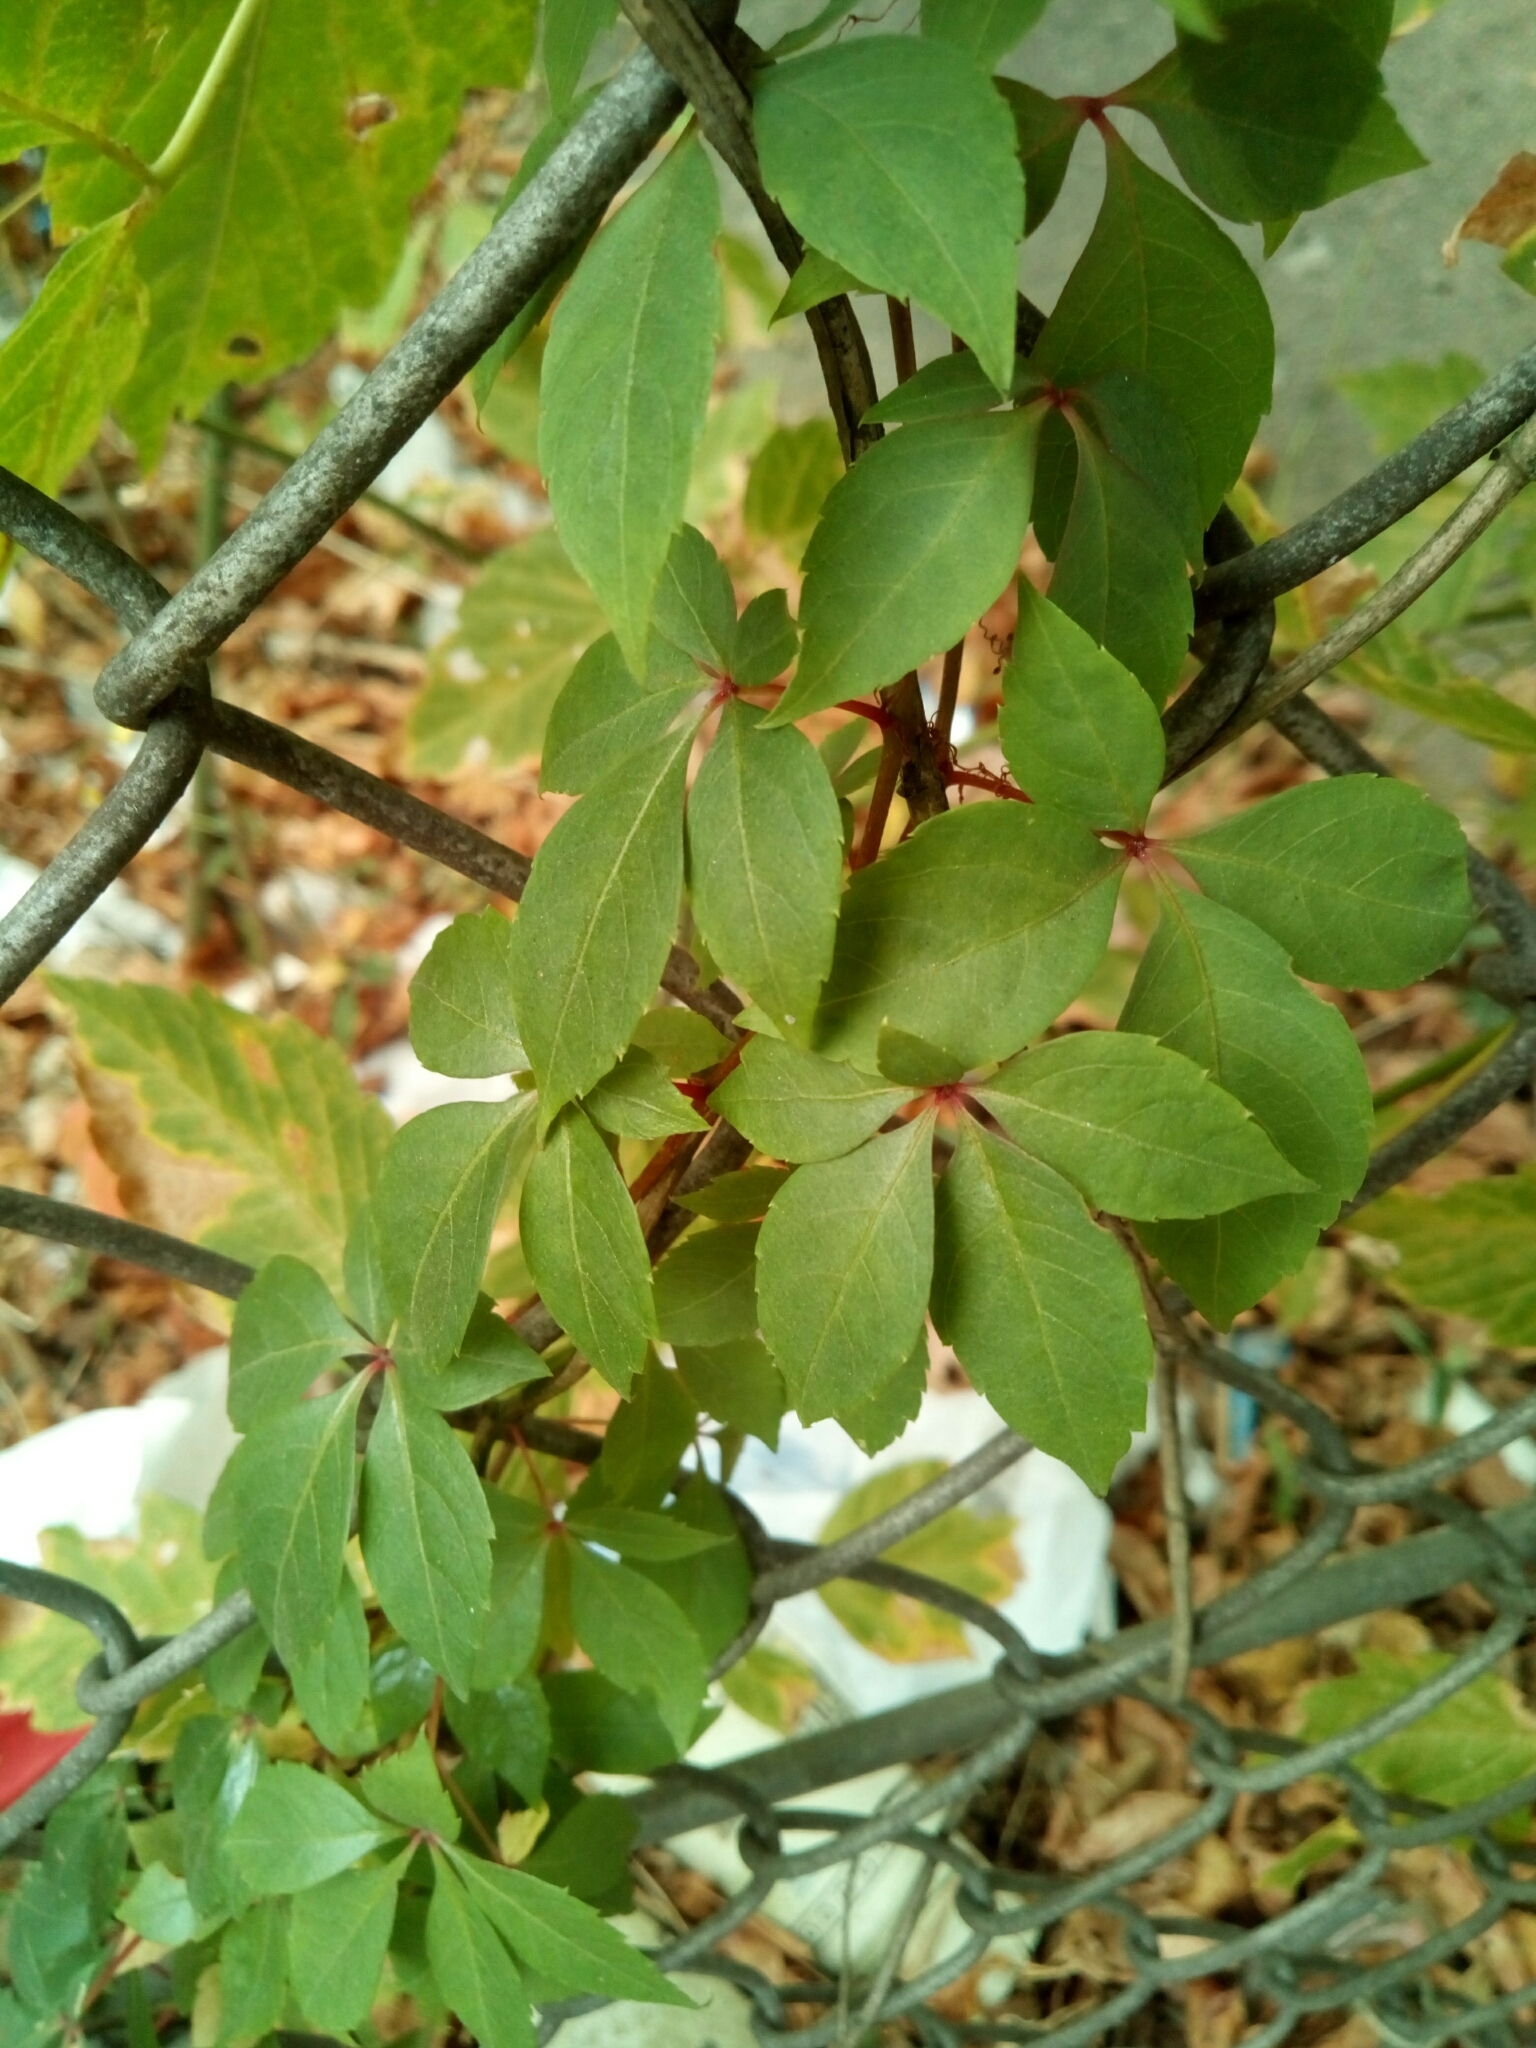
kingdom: Plantae
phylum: Tracheophyta
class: Magnoliopsida
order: Vitales
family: Vitaceae
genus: Parthenocissus
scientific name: Parthenocissus quinquefolia
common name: Virginia-creeper
